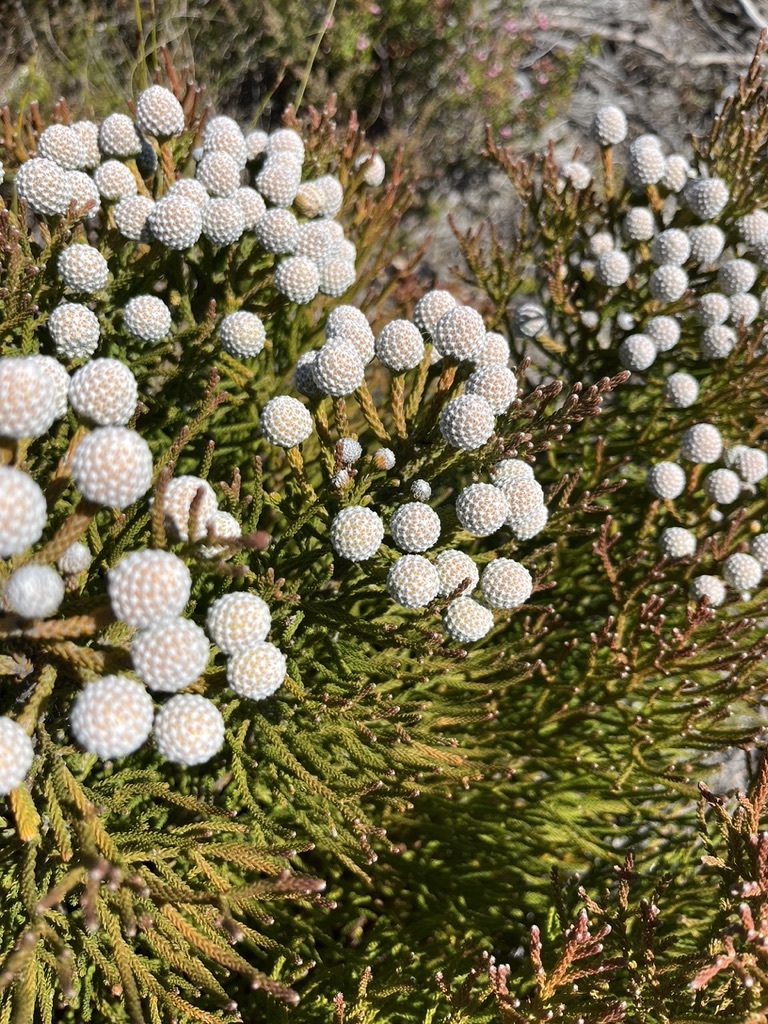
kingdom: Plantae
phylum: Tracheophyta
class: Magnoliopsida
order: Bruniales
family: Bruniaceae
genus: Brunia
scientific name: Brunia noduliflora
